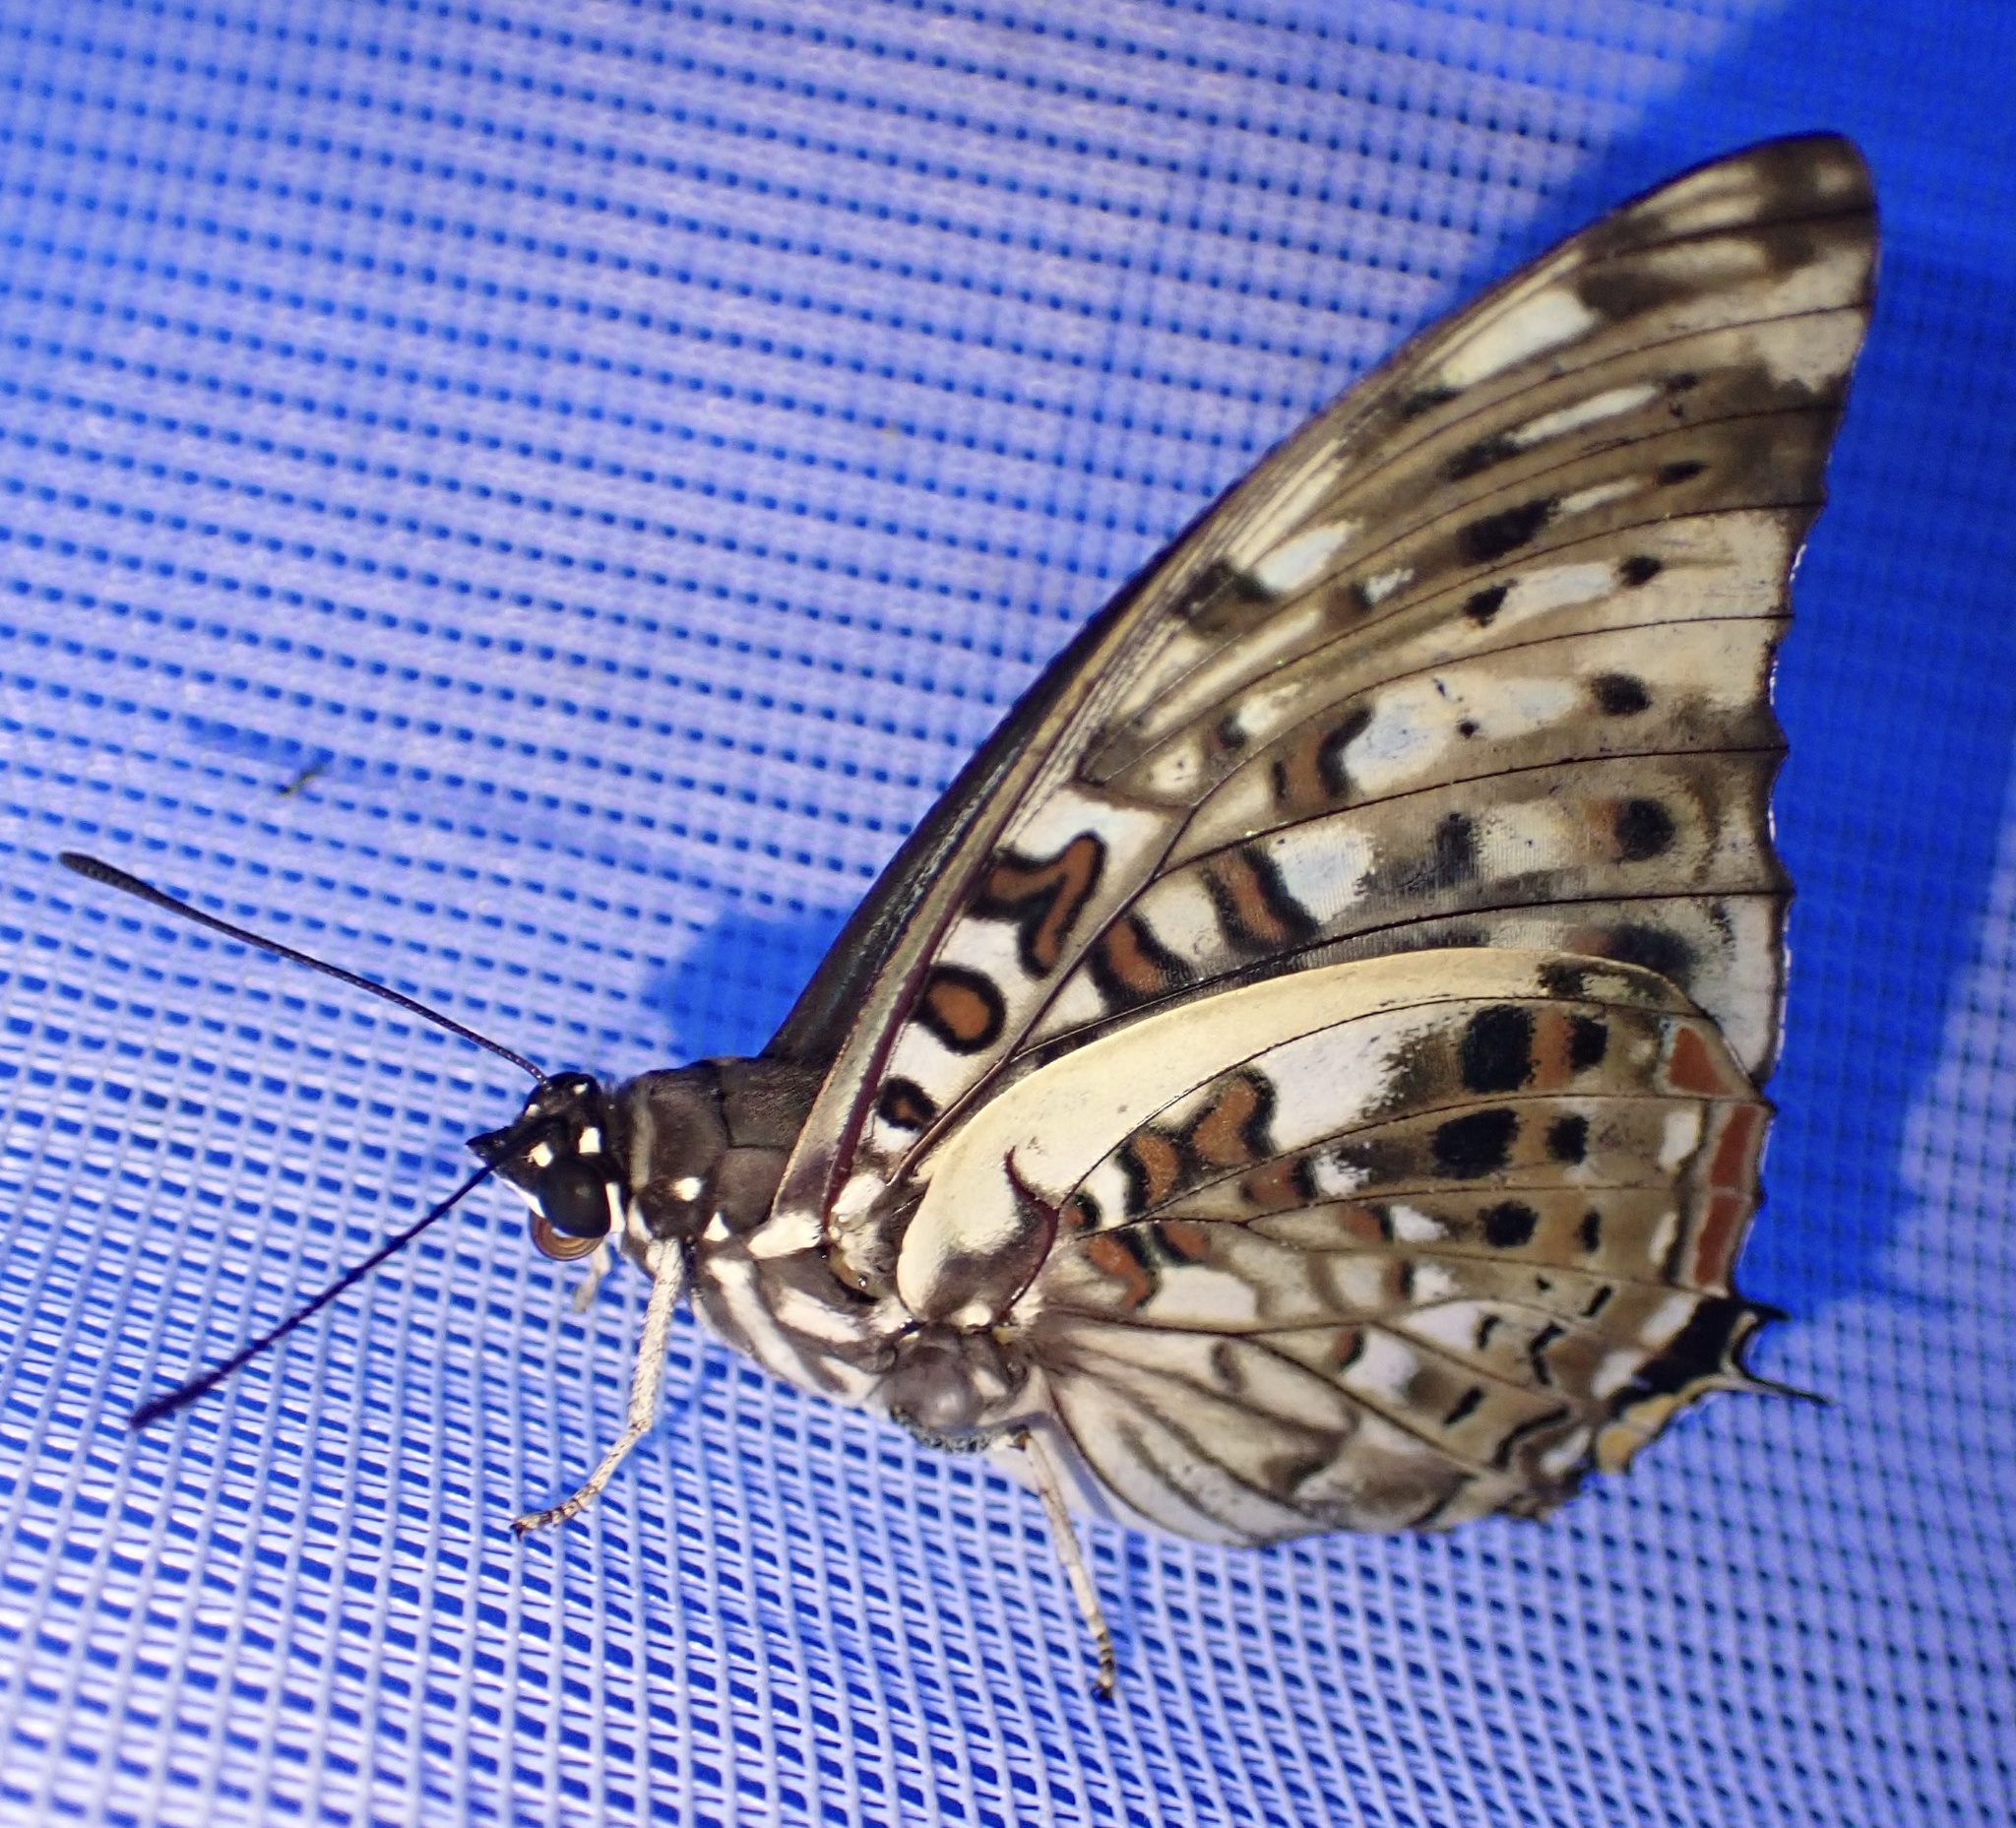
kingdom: Animalia
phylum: Arthropoda
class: Insecta
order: Lepidoptera
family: Nymphalidae
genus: Charaxes
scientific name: Charaxes etesipe
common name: Savannah charaxes
